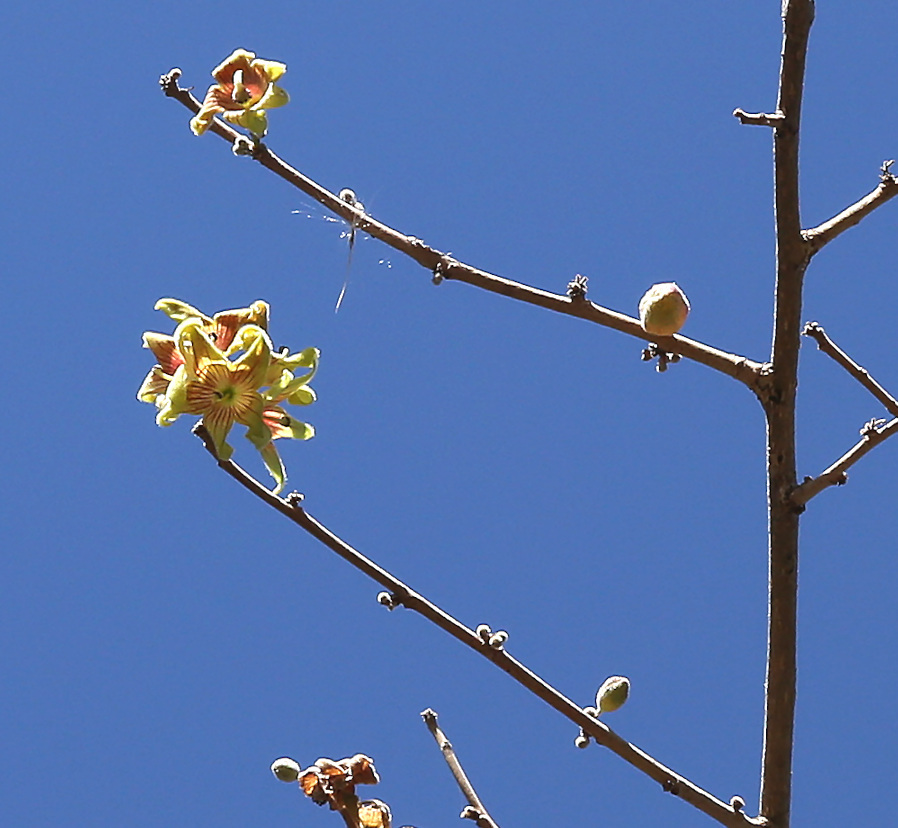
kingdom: Plantae
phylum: Tracheophyta
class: Magnoliopsida
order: Malvales
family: Malvaceae
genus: Sterculia
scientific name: Sterculia rogersii
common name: Star-chestnut
